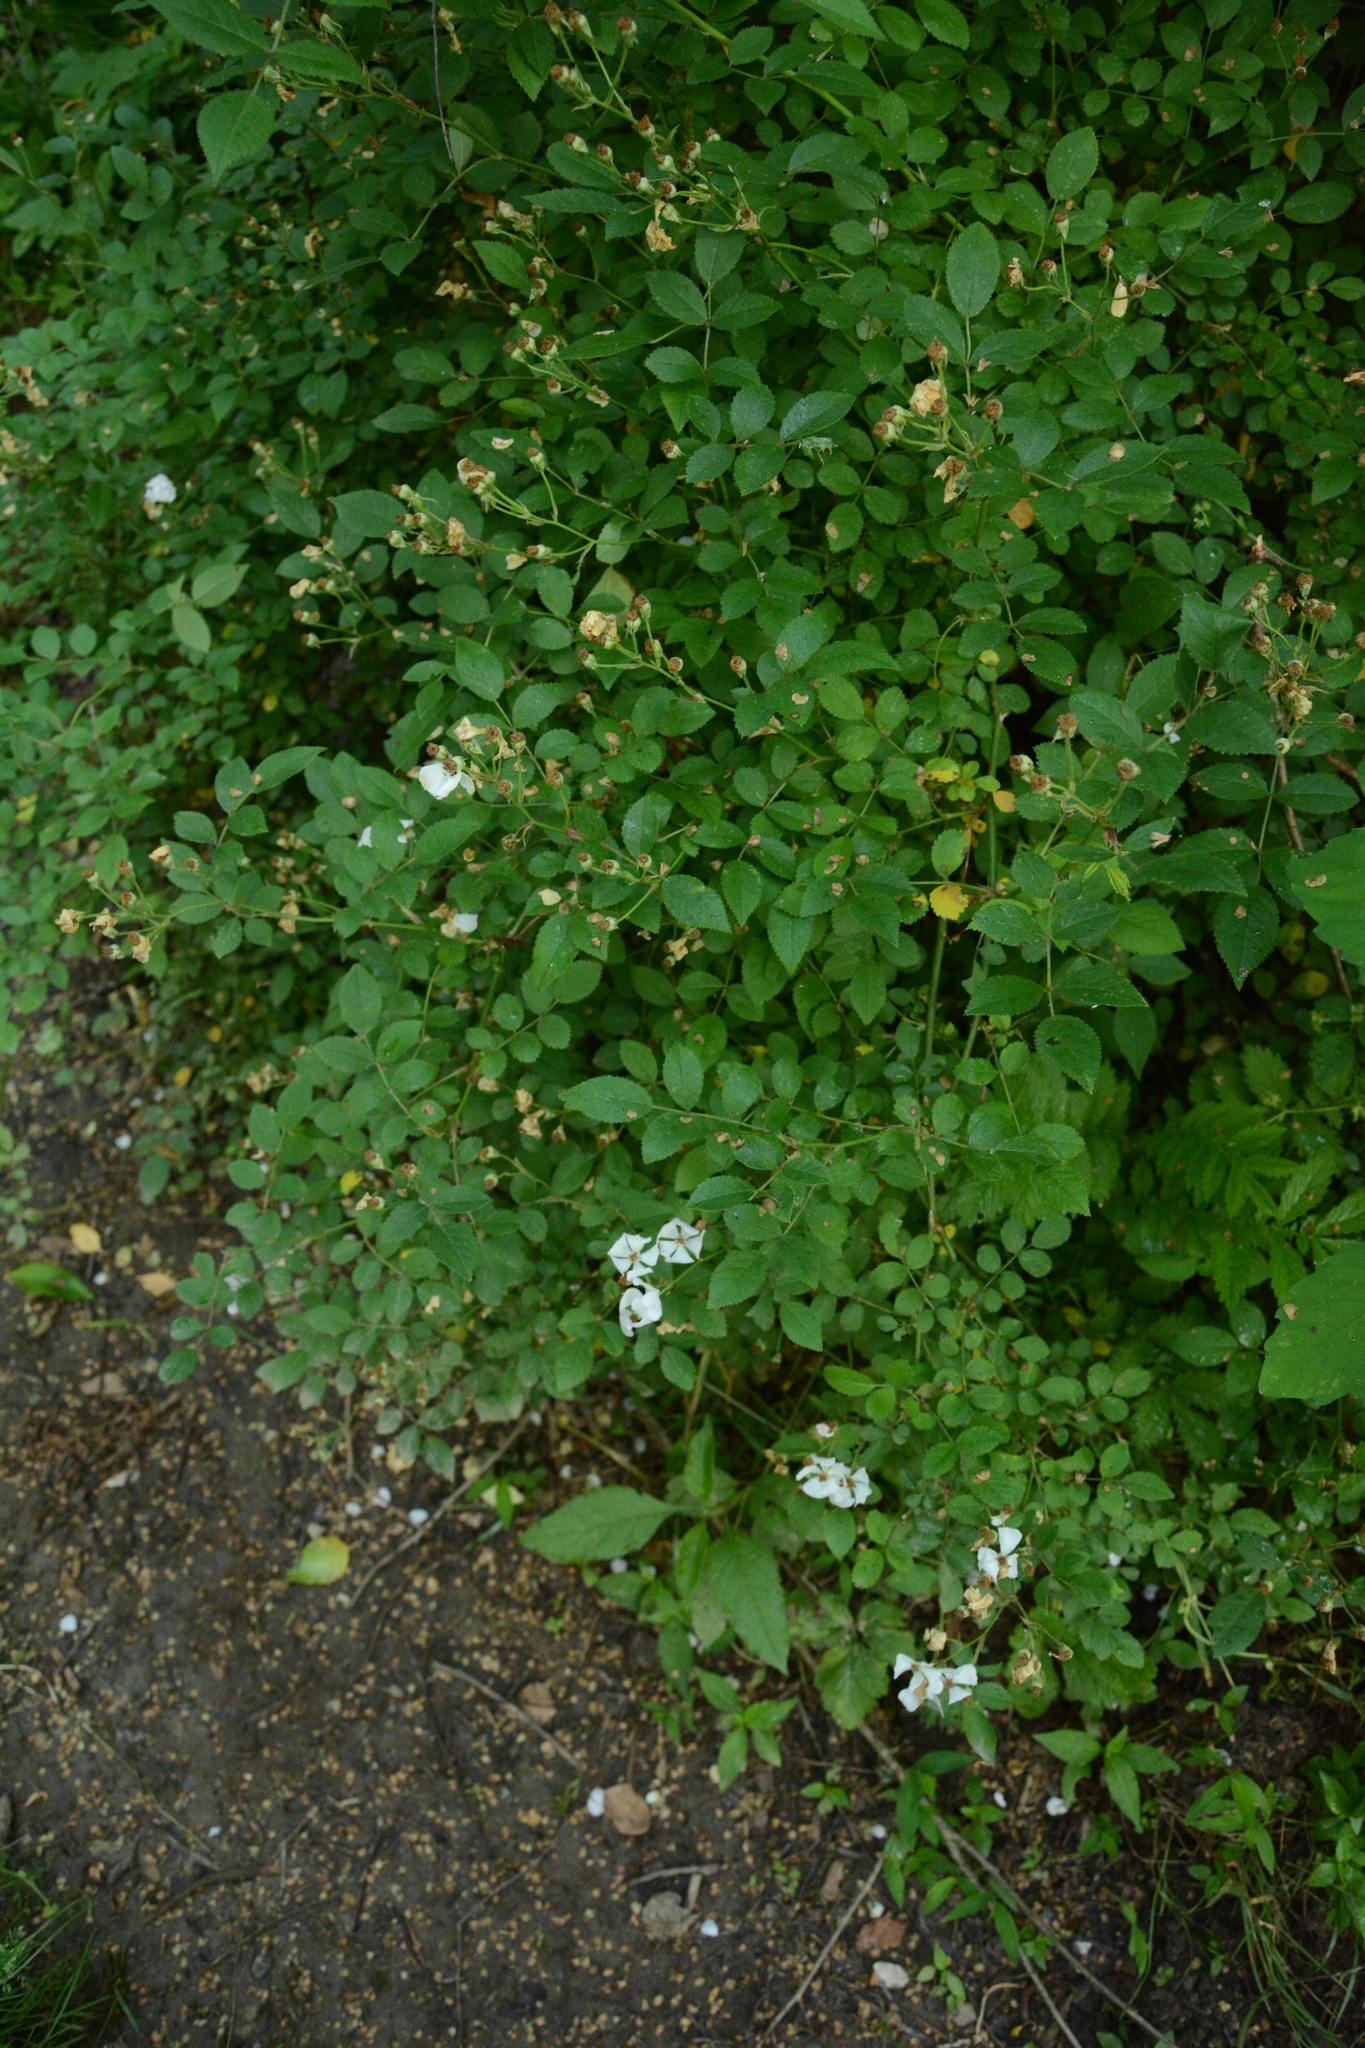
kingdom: Plantae
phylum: Tracheophyta
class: Magnoliopsida
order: Rosales
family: Rosaceae
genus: Rosa
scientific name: Rosa multiflora
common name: Multiflora rose
